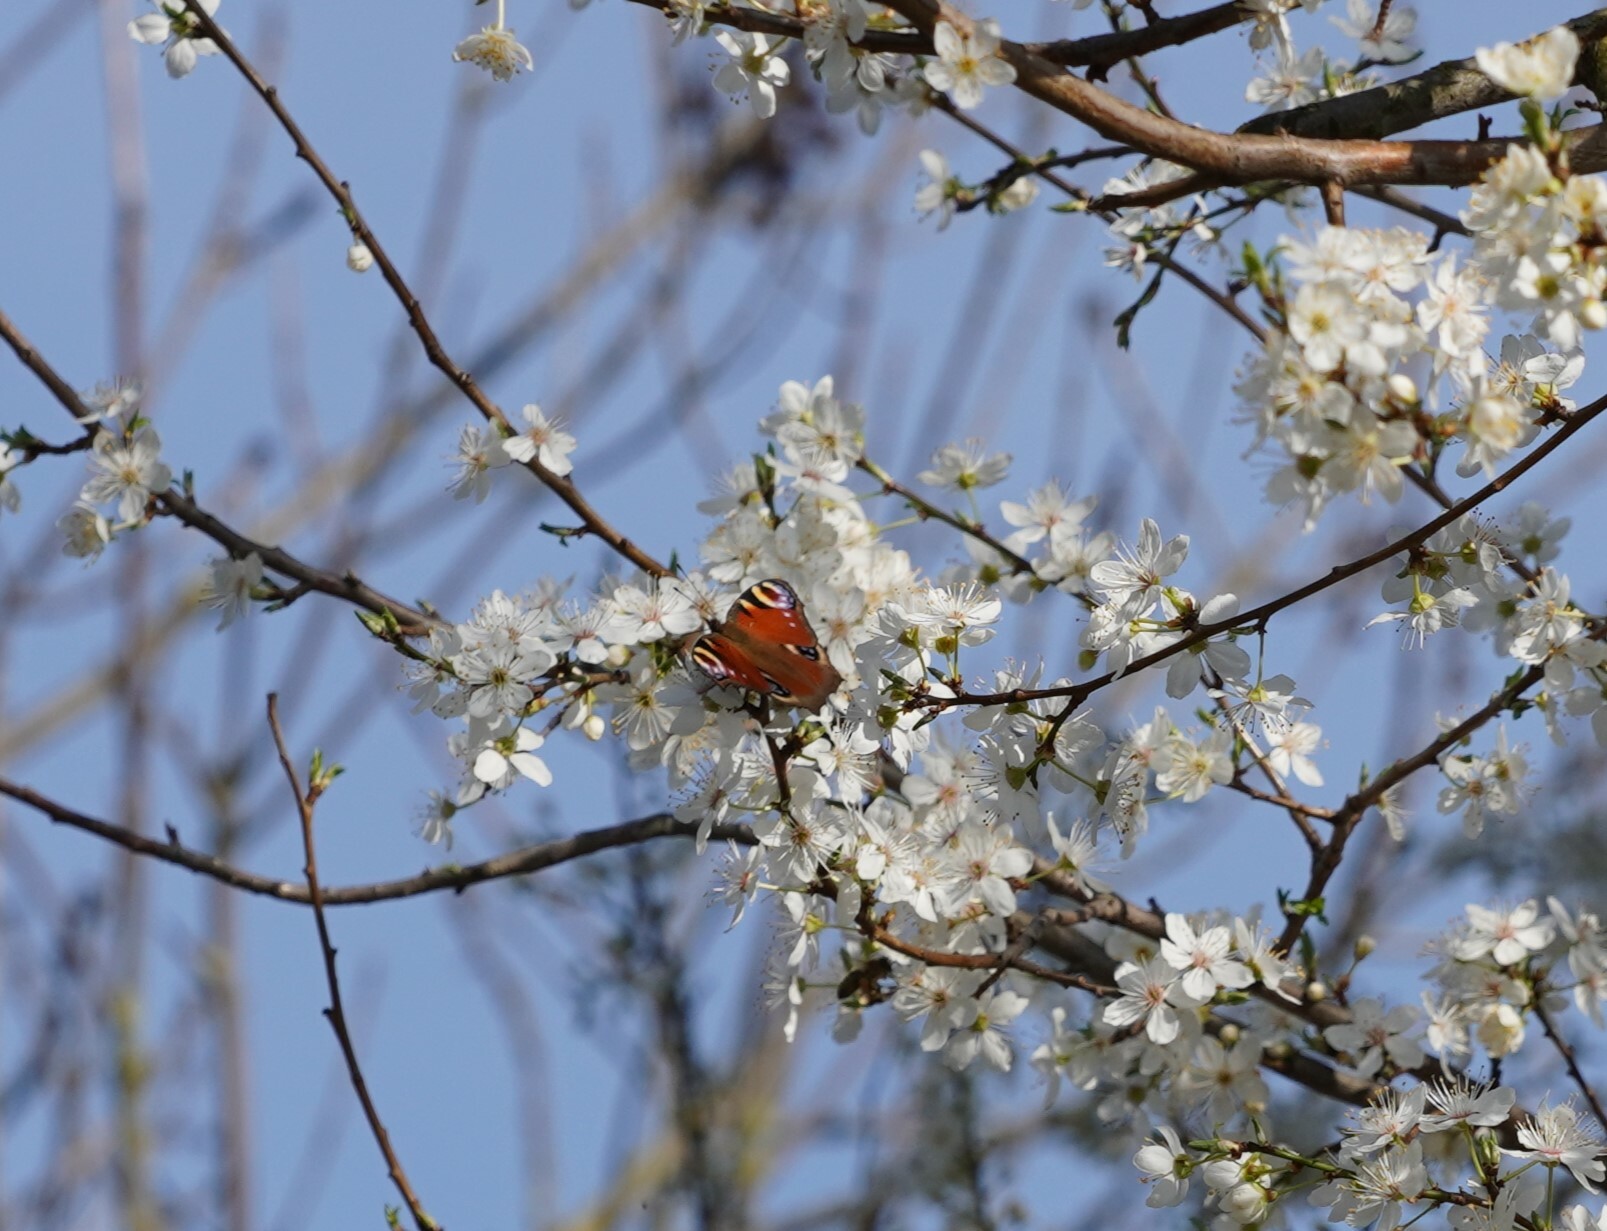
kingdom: Animalia
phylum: Arthropoda
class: Insecta
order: Lepidoptera
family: Nymphalidae
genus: Aglais
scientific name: Aglais io
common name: Peacock
